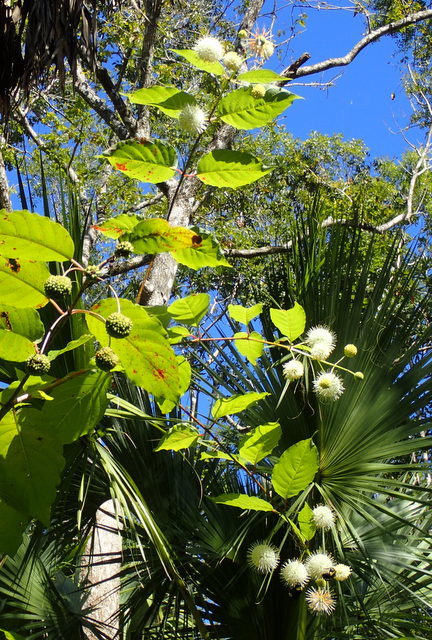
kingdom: Plantae
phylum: Tracheophyta
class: Magnoliopsida
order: Gentianales
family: Rubiaceae
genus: Cephalanthus
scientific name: Cephalanthus occidentalis
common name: Button-willow
